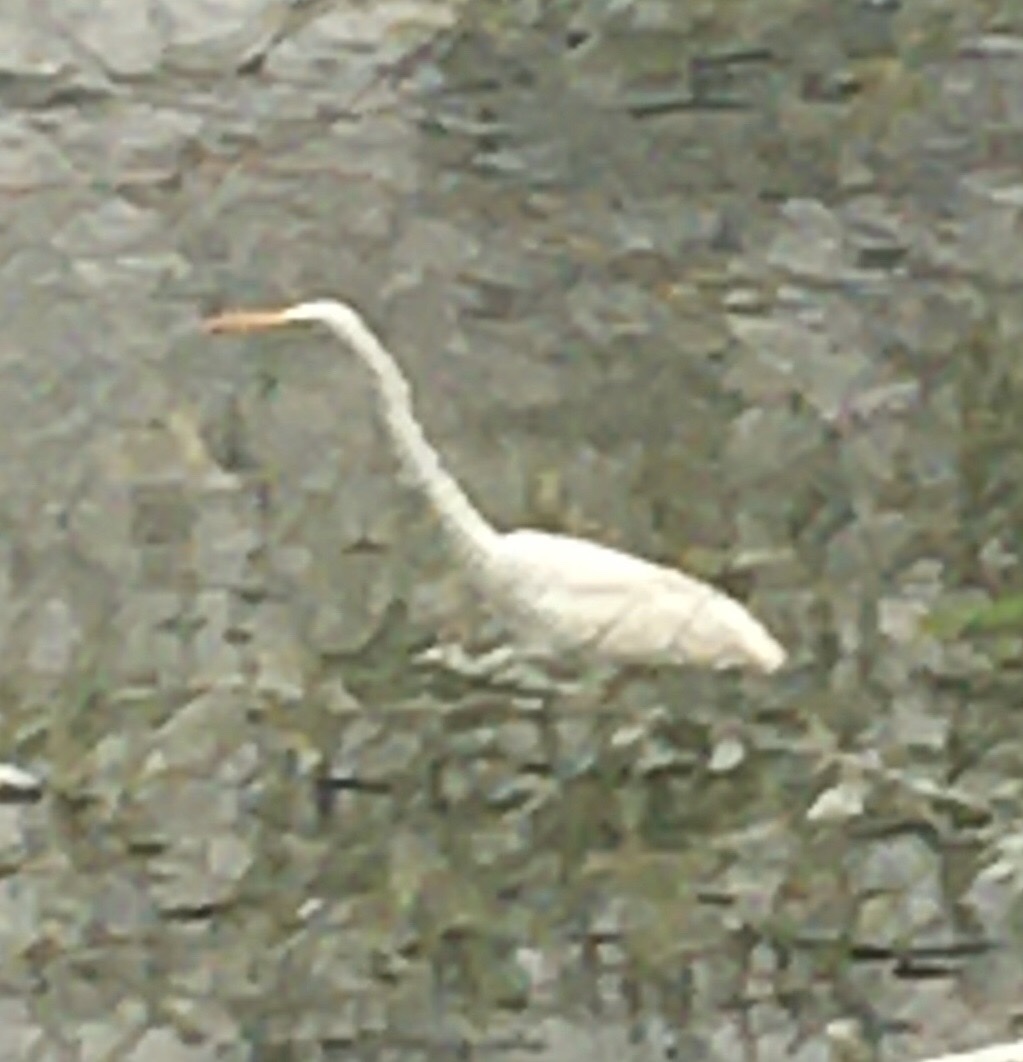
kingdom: Animalia
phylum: Chordata
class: Aves
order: Pelecaniformes
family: Ardeidae
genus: Ardea
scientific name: Ardea alba
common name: Great egret
